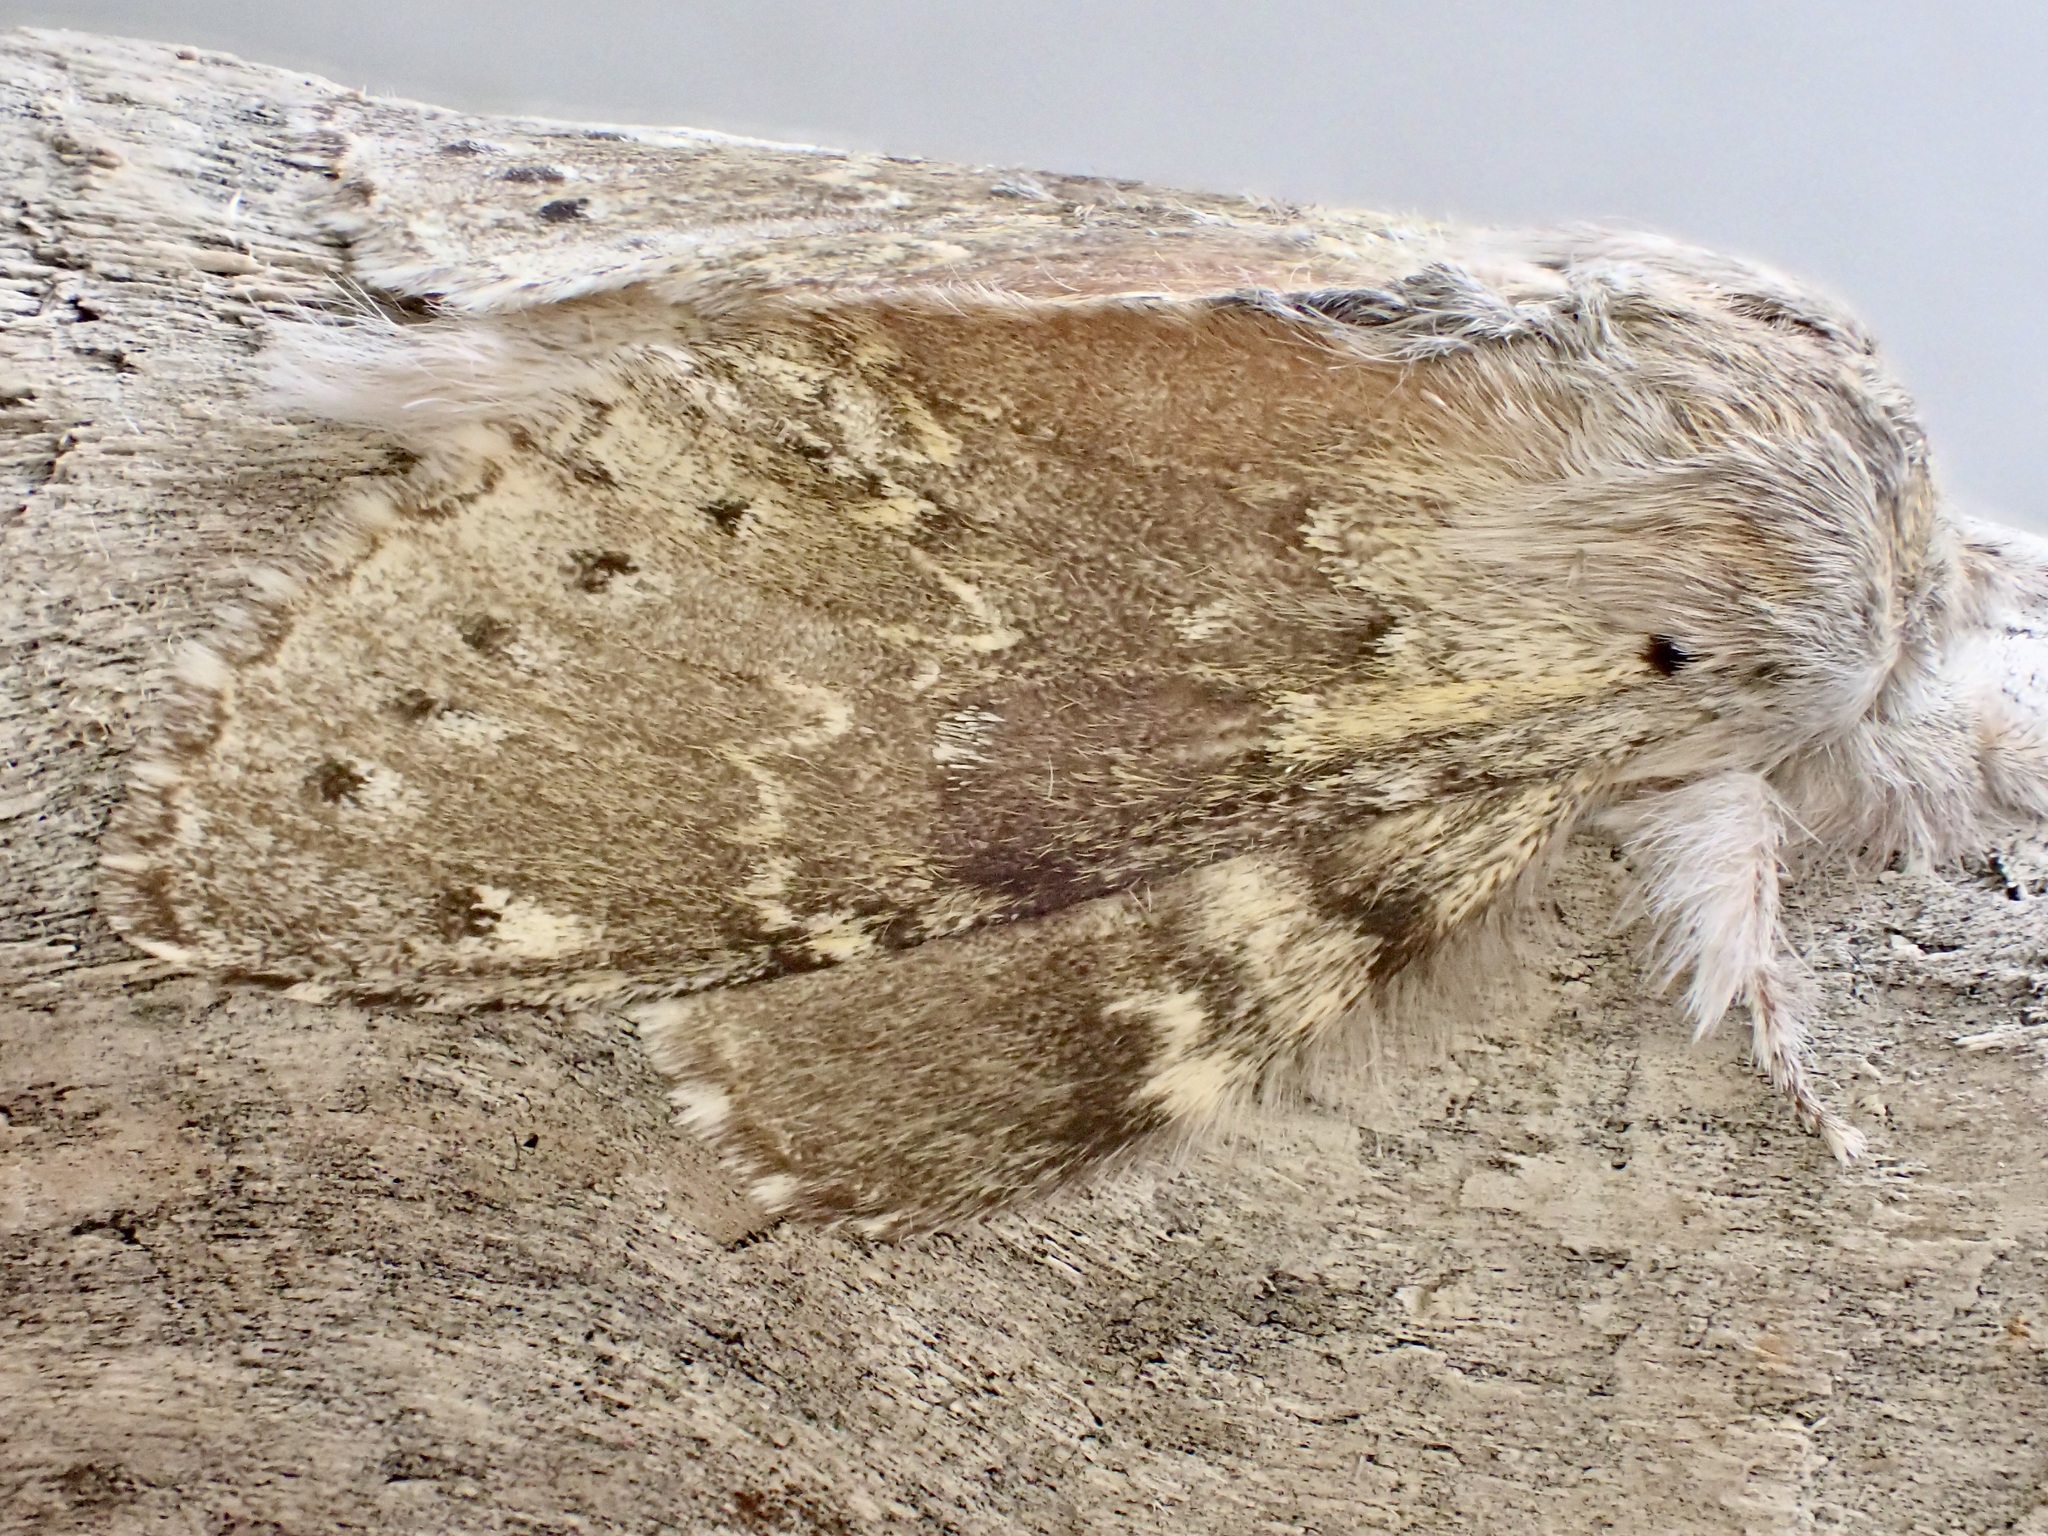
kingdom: Animalia
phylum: Arthropoda
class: Insecta
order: Lepidoptera
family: Notodontidae
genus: Stauropus
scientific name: Stauropus fagi
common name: Lobster moth
